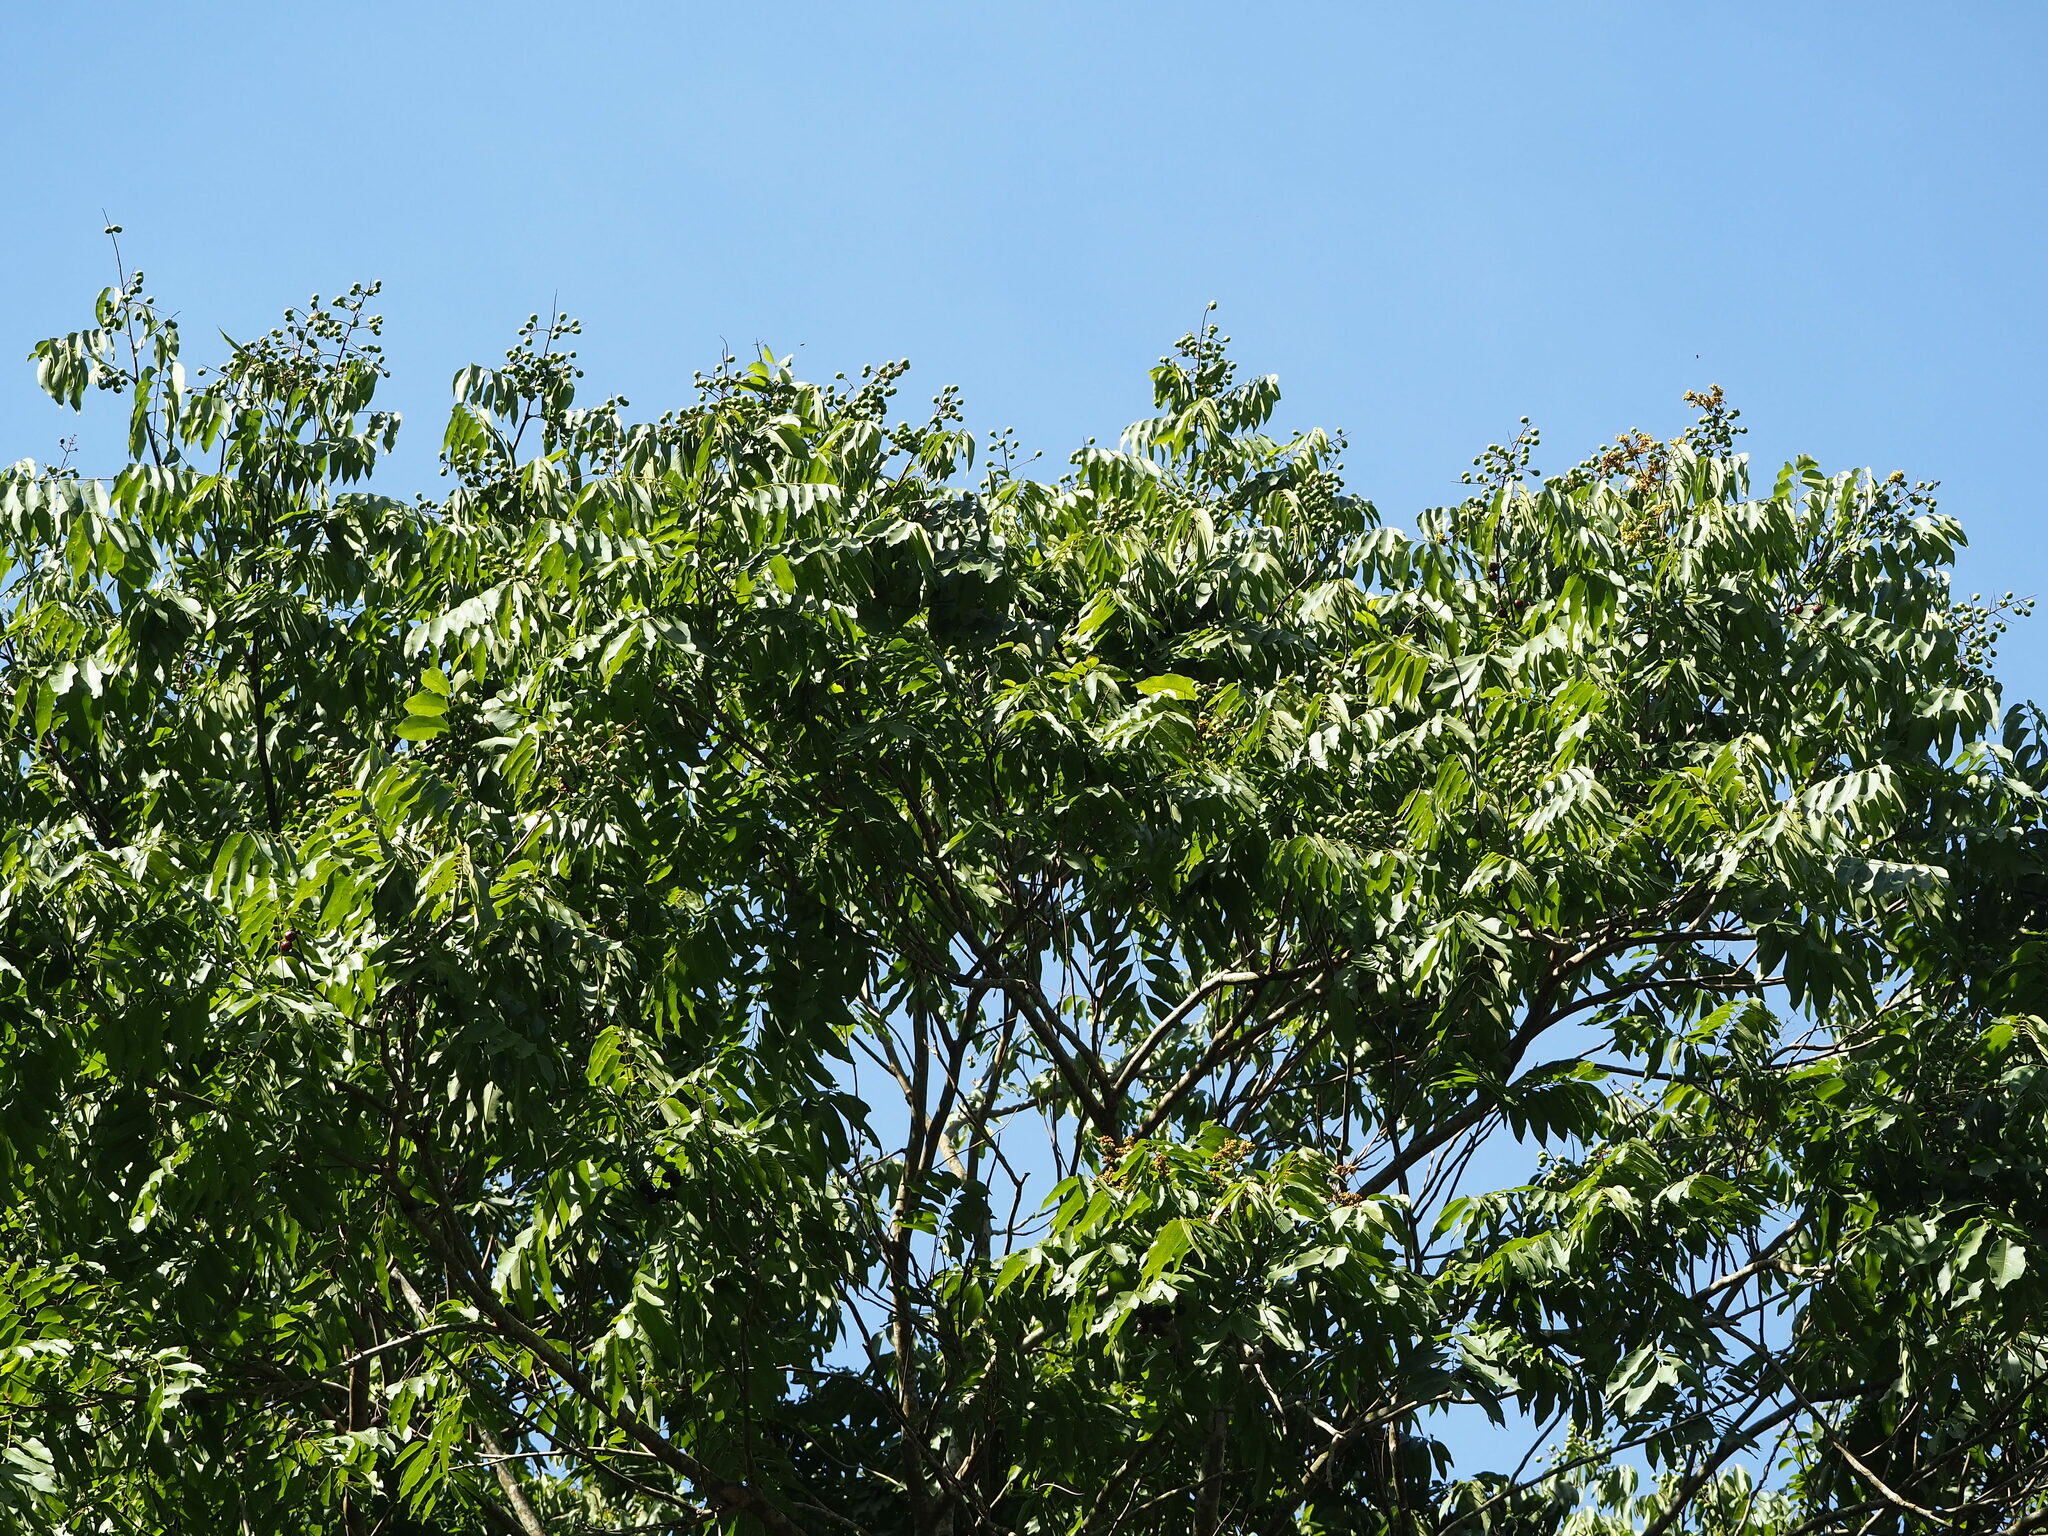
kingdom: Plantae
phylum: Tracheophyta
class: Magnoliopsida
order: Sapindales
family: Sapindaceae
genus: Sapindus
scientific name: Sapindus mukorossi
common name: Chinese soapberry
